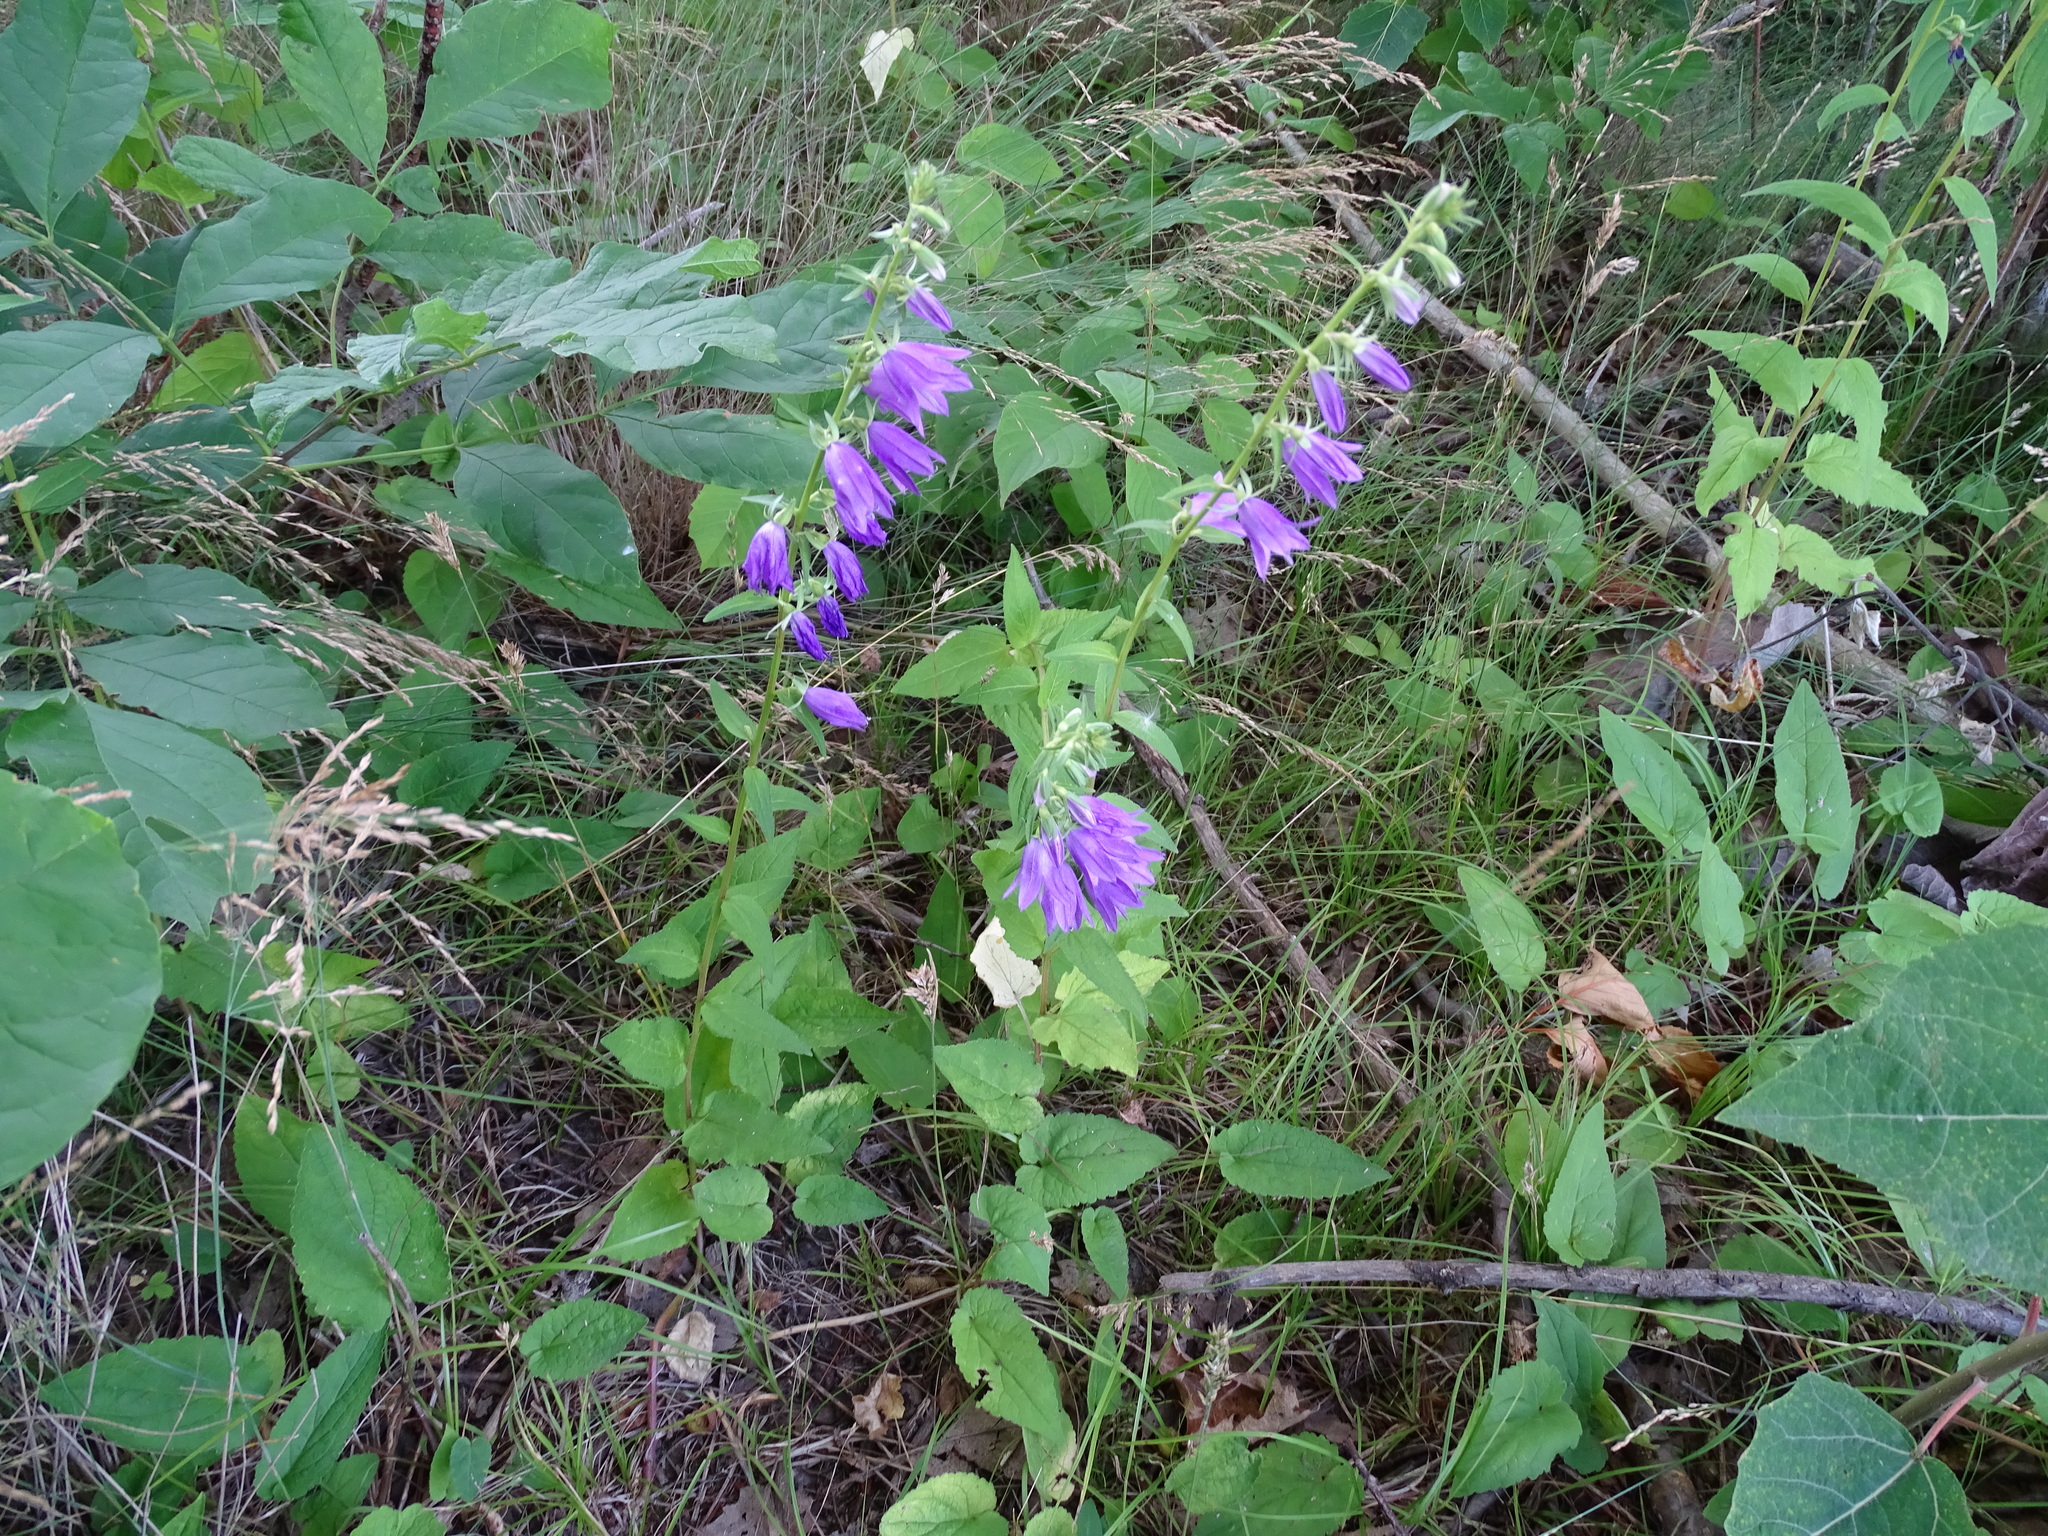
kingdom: Plantae
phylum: Tracheophyta
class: Magnoliopsida
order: Asterales
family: Campanulaceae
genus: Campanula
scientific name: Campanula rapunculoides
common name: Creeping bellflower
